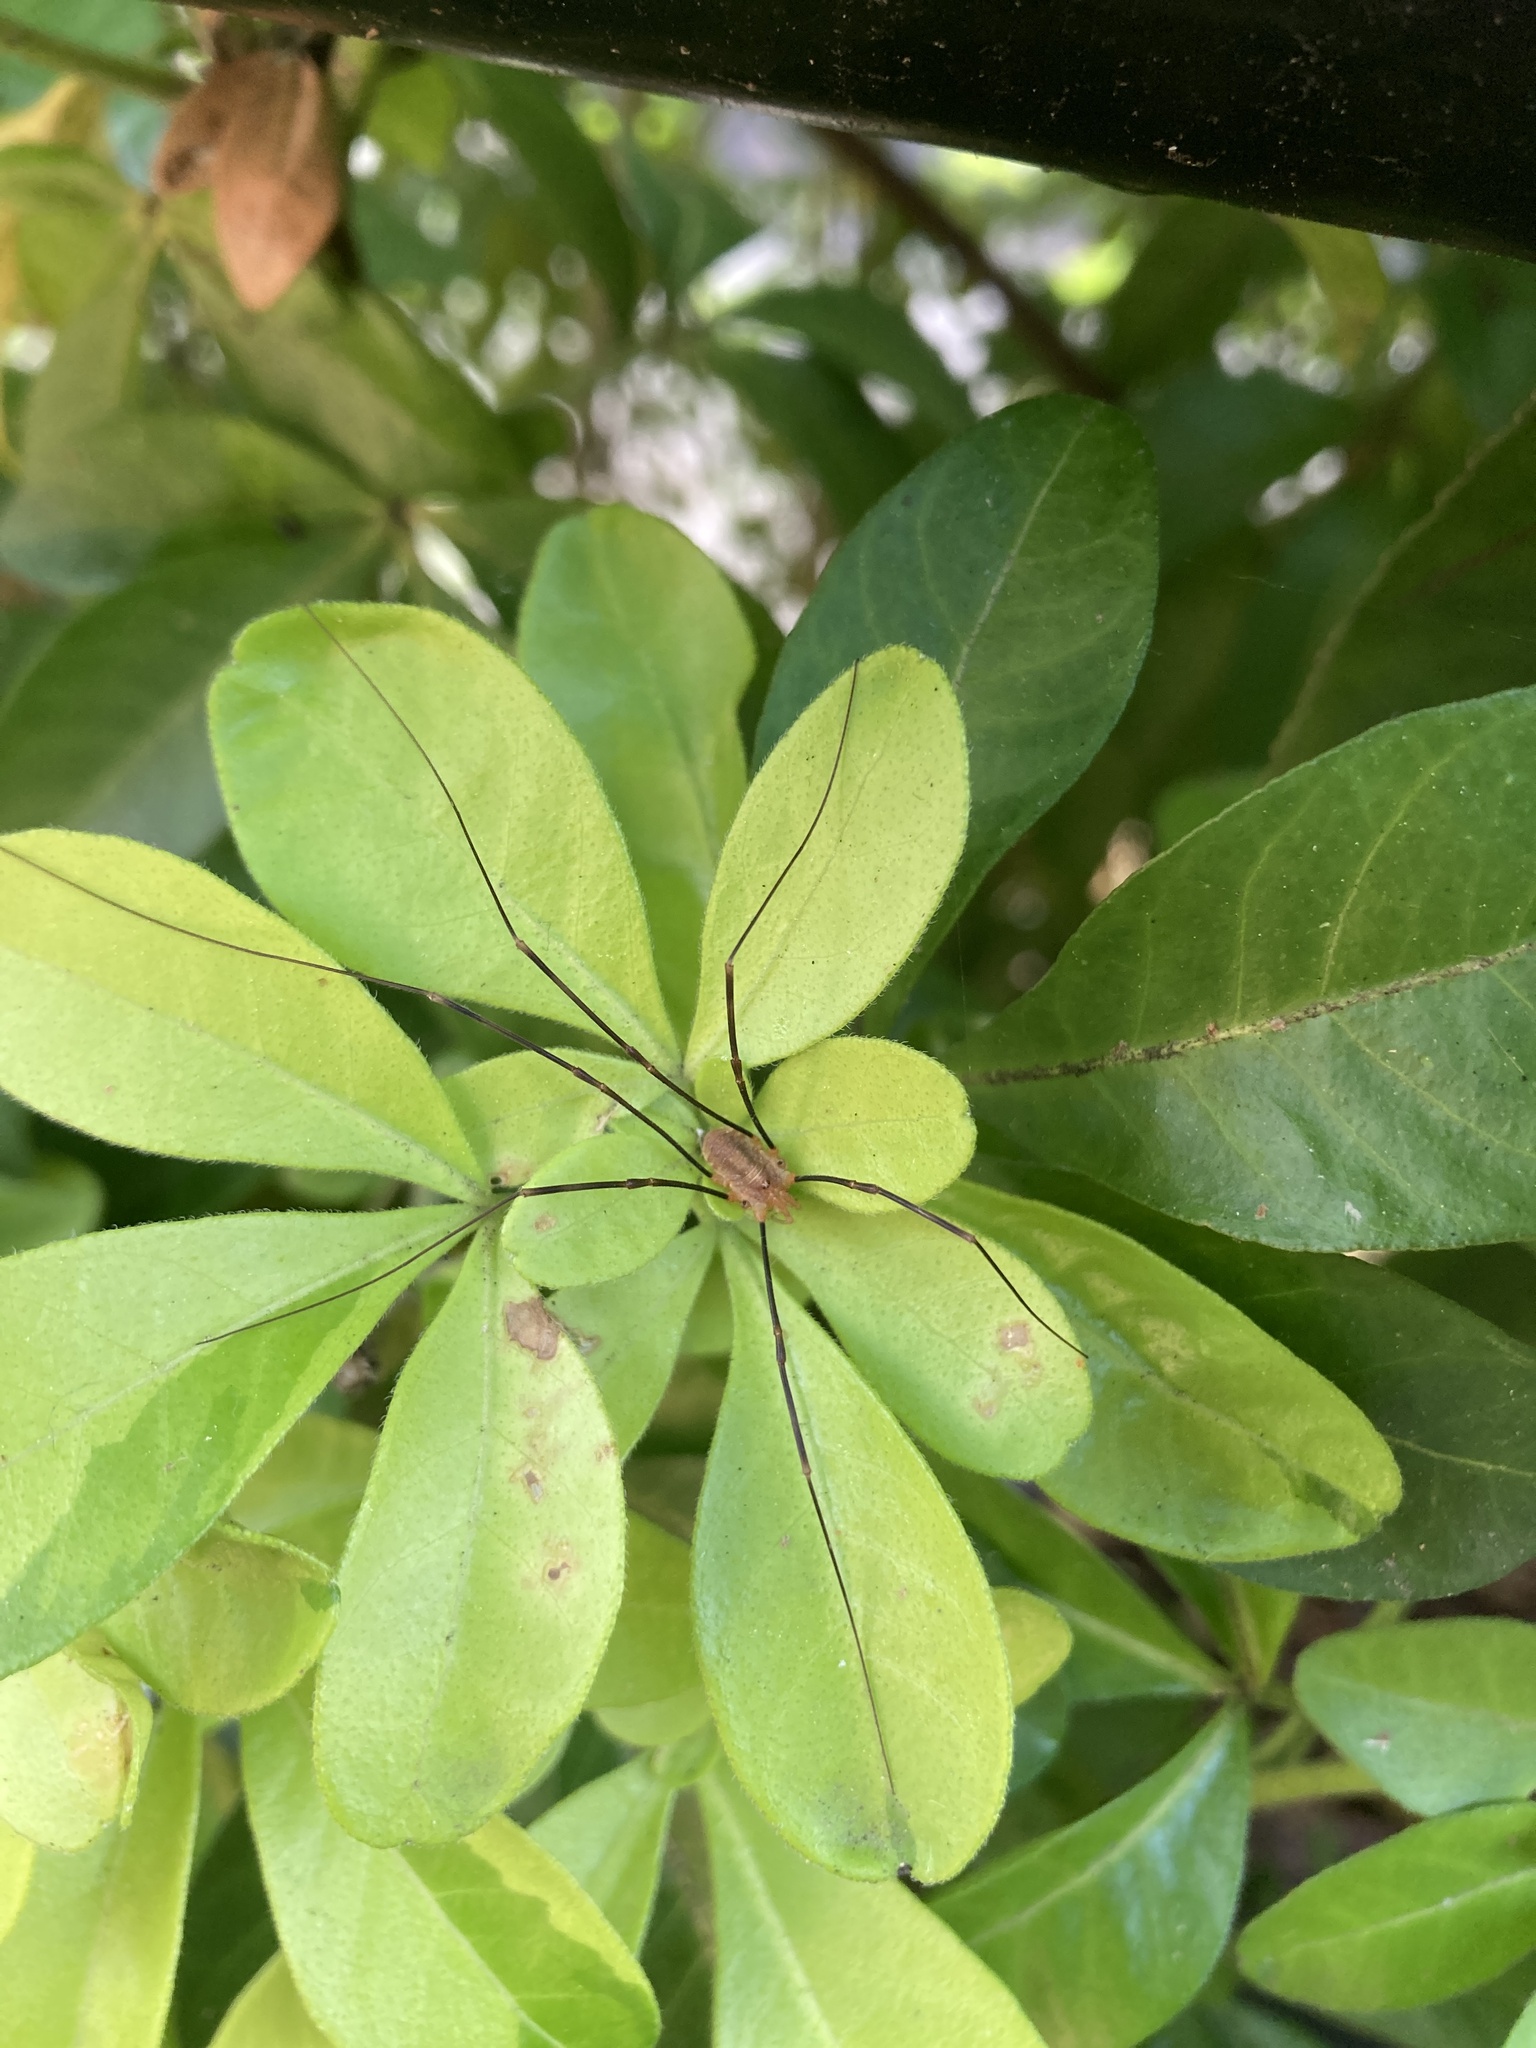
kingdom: Animalia
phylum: Arthropoda
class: Arachnida
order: Opiliones
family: Phalangiidae
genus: Opilio
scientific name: Opilio canestrinii
